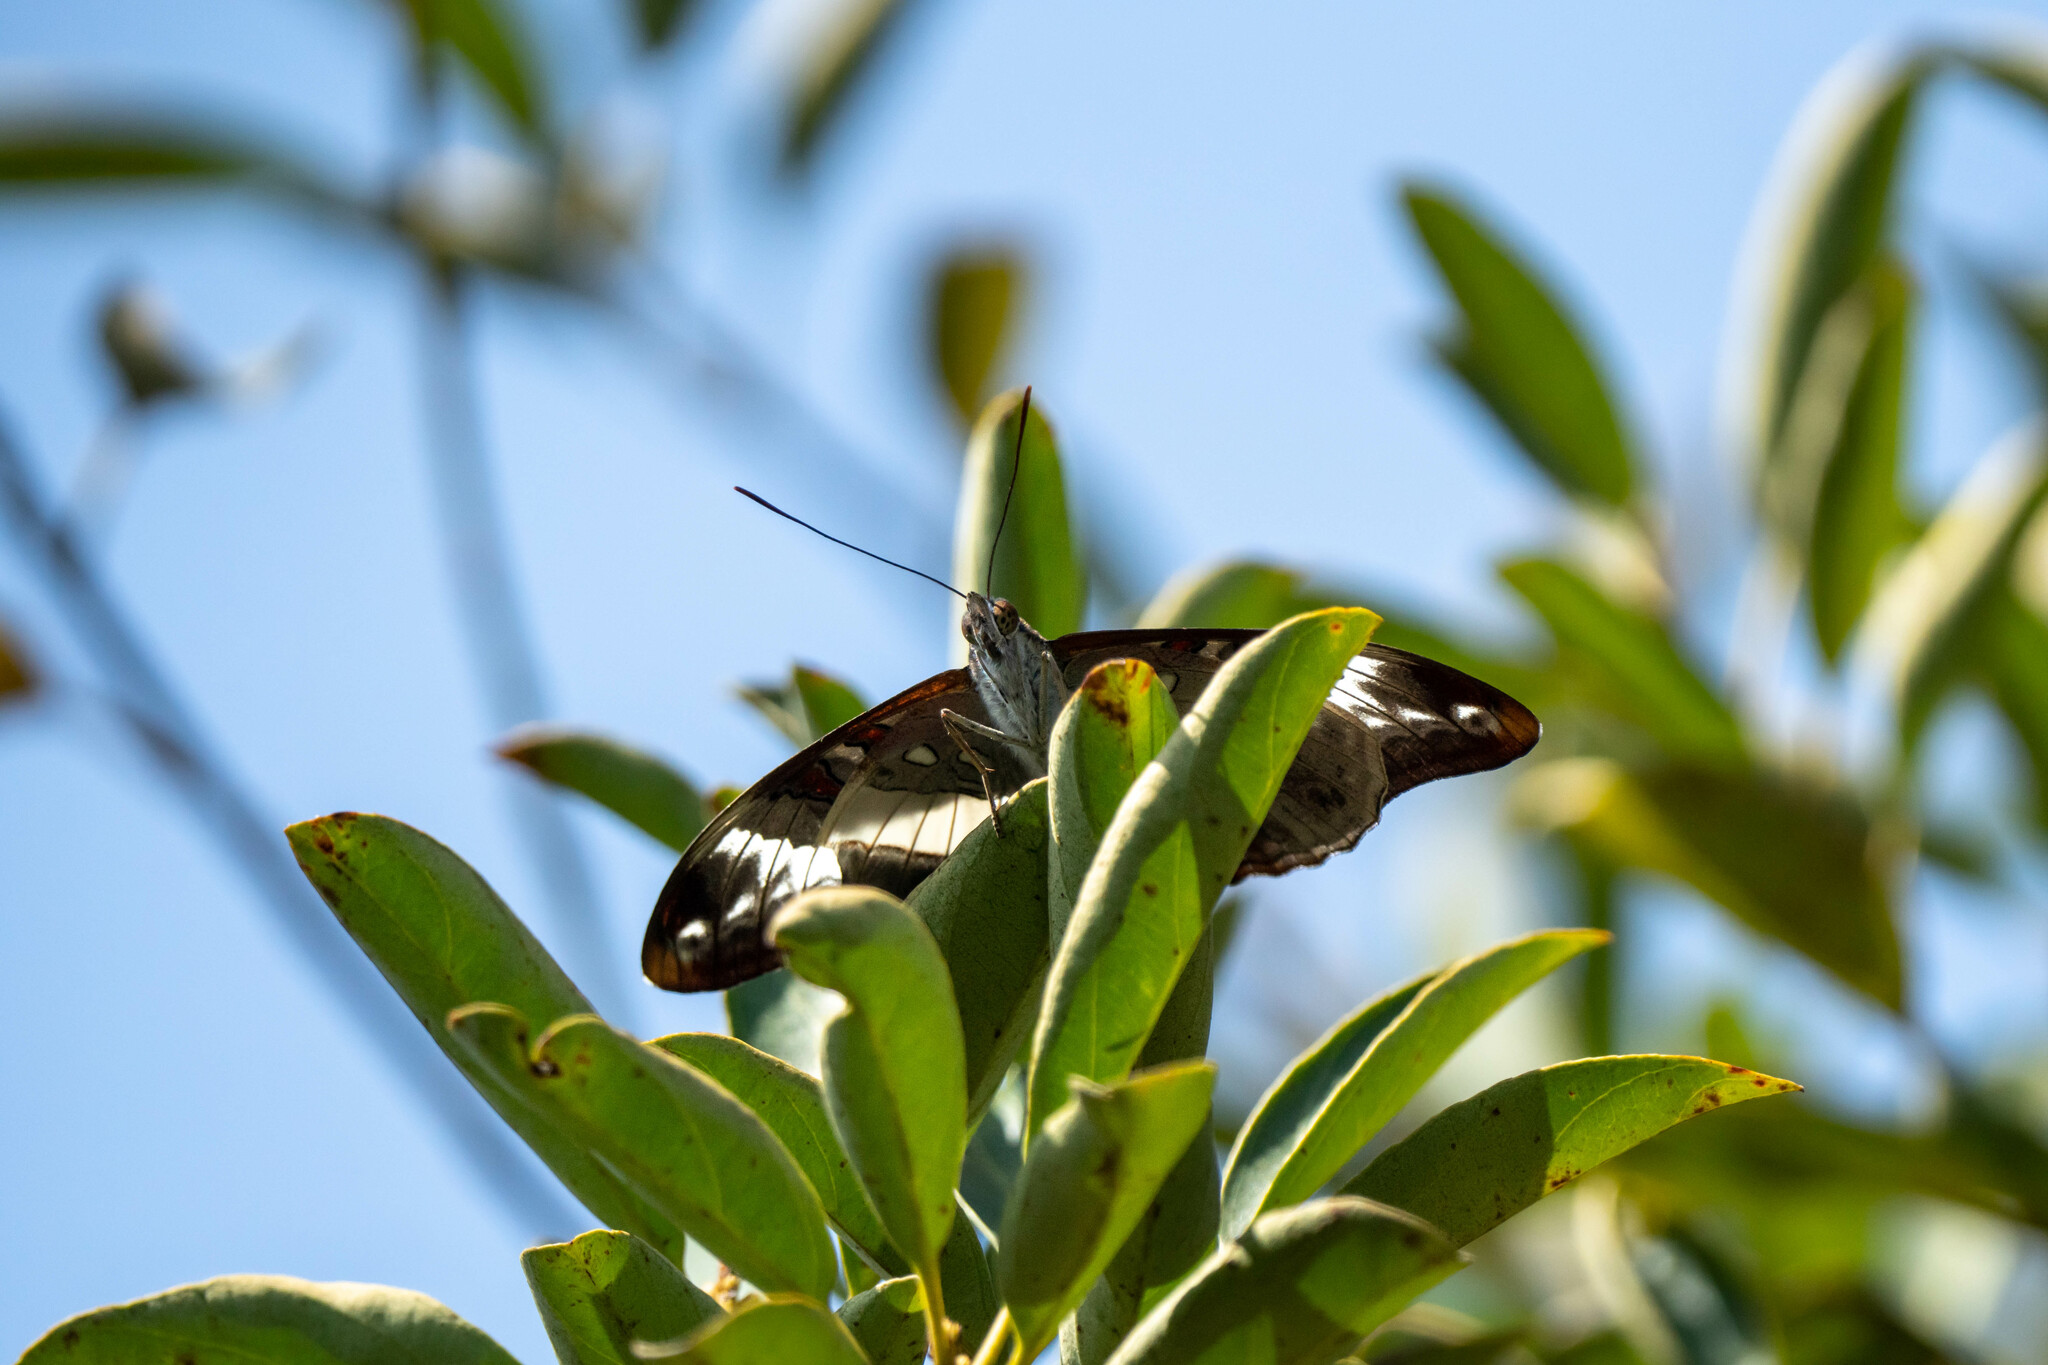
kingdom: Animalia
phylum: Arthropoda
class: Insecta
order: Lepidoptera
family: Nymphalidae
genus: Limenitis
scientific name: Limenitis Parasarpa dudu
